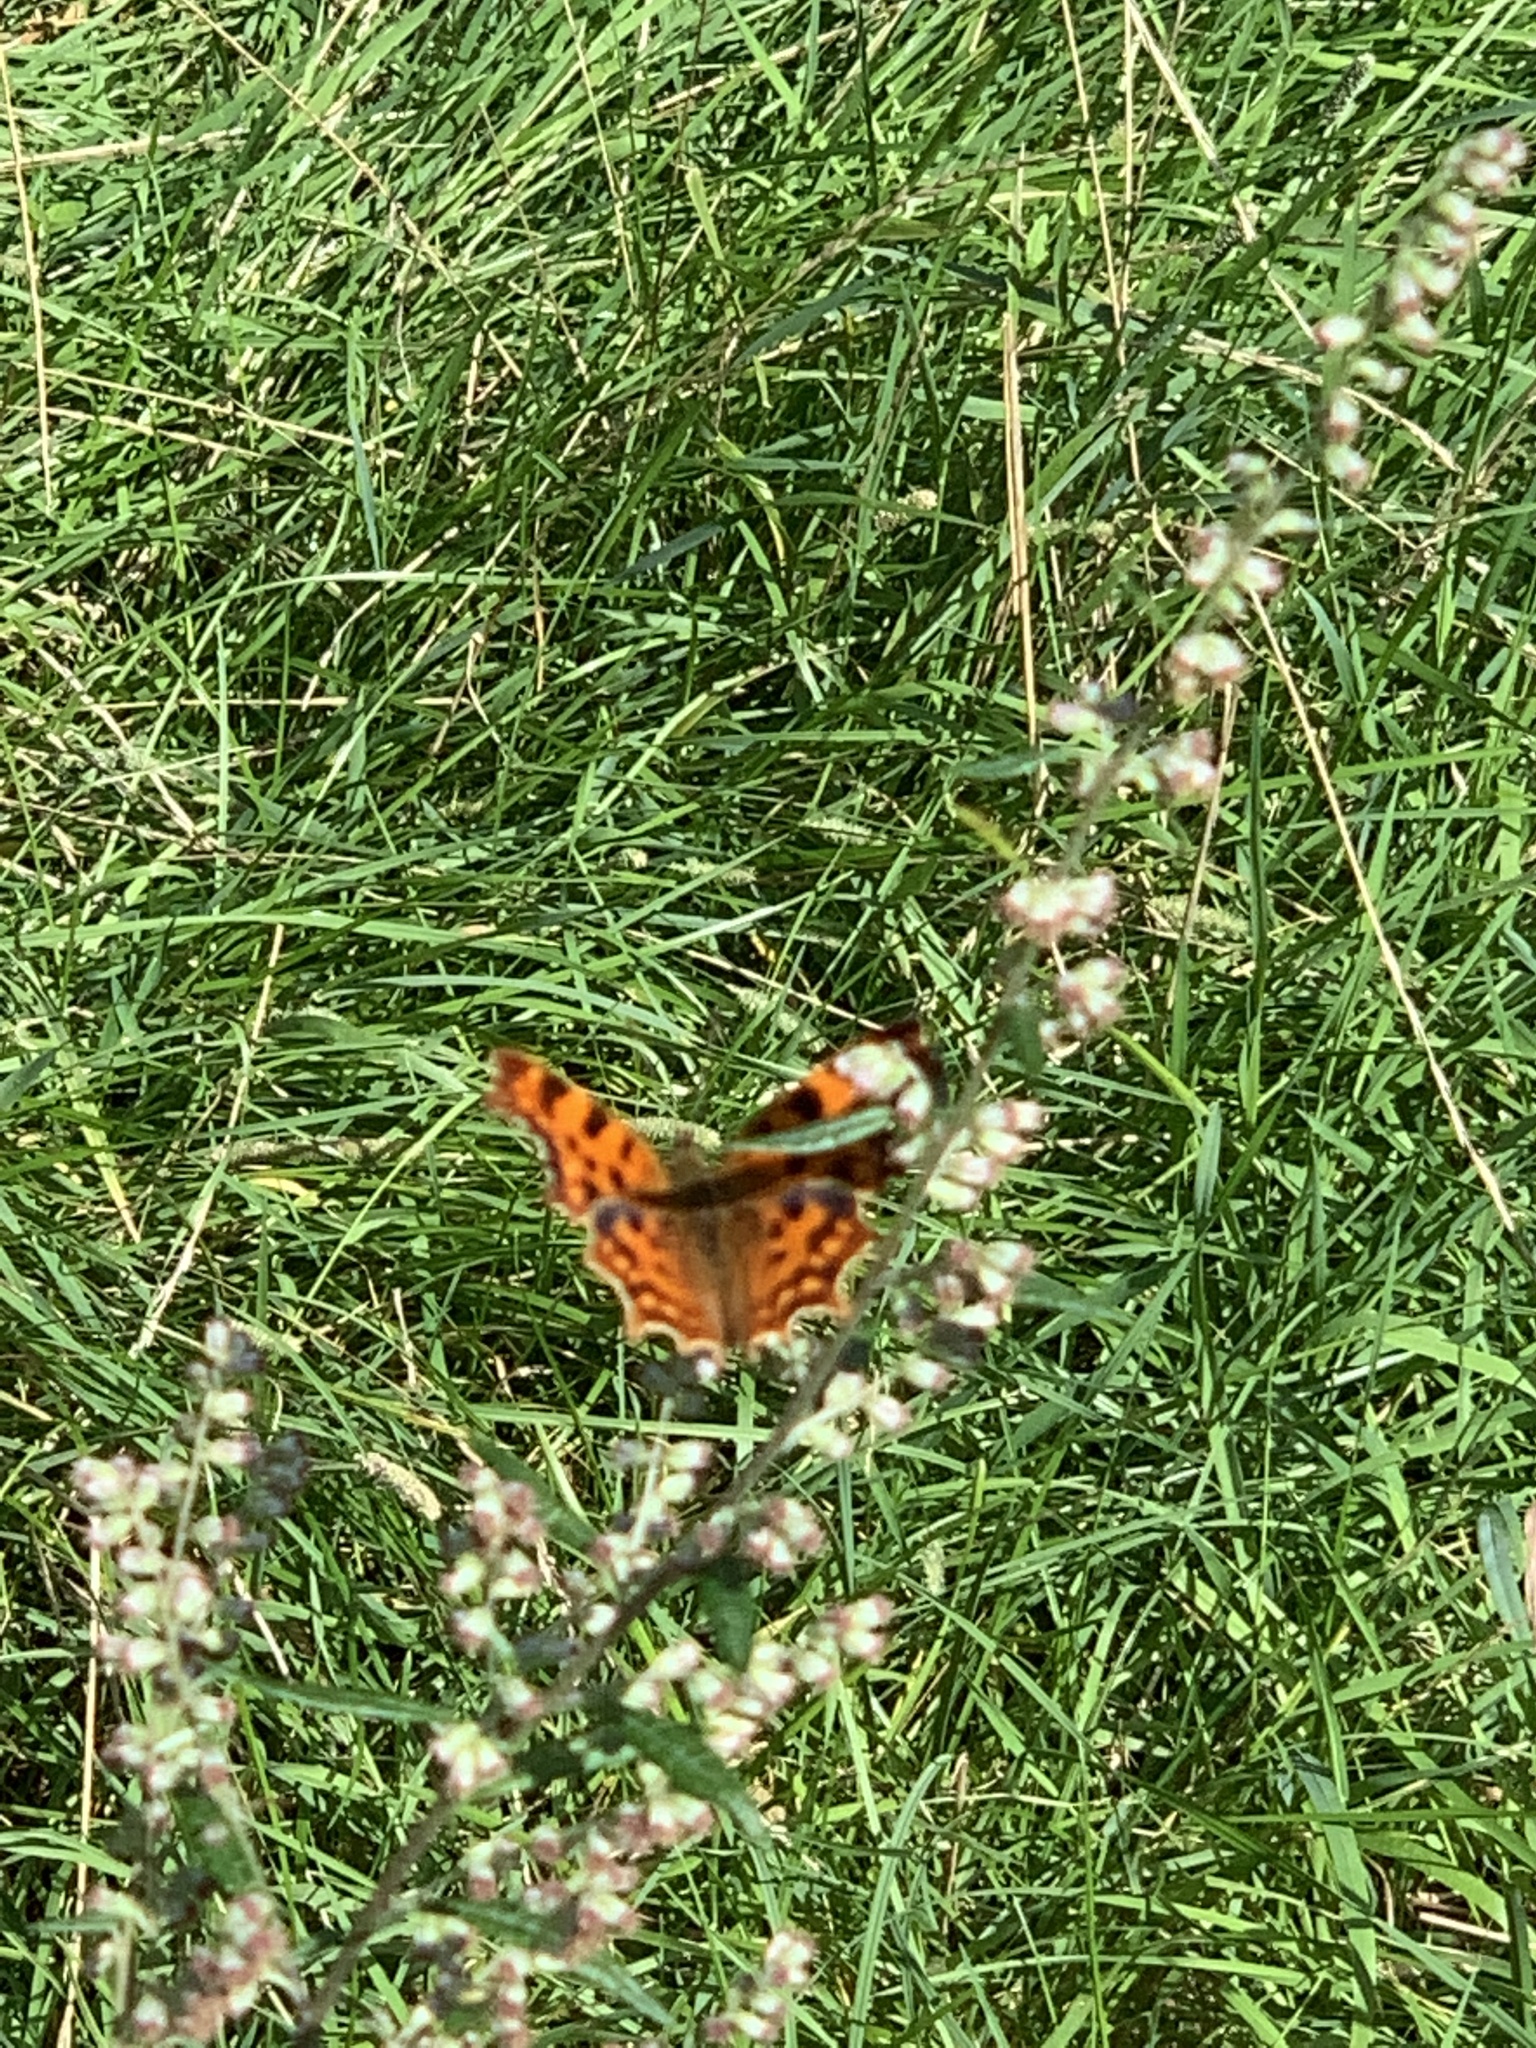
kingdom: Animalia
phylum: Arthropoda
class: Insecta
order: Lepidoptera
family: Nymphalidae
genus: Polygonia
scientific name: Polygonia c-album
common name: Comma
